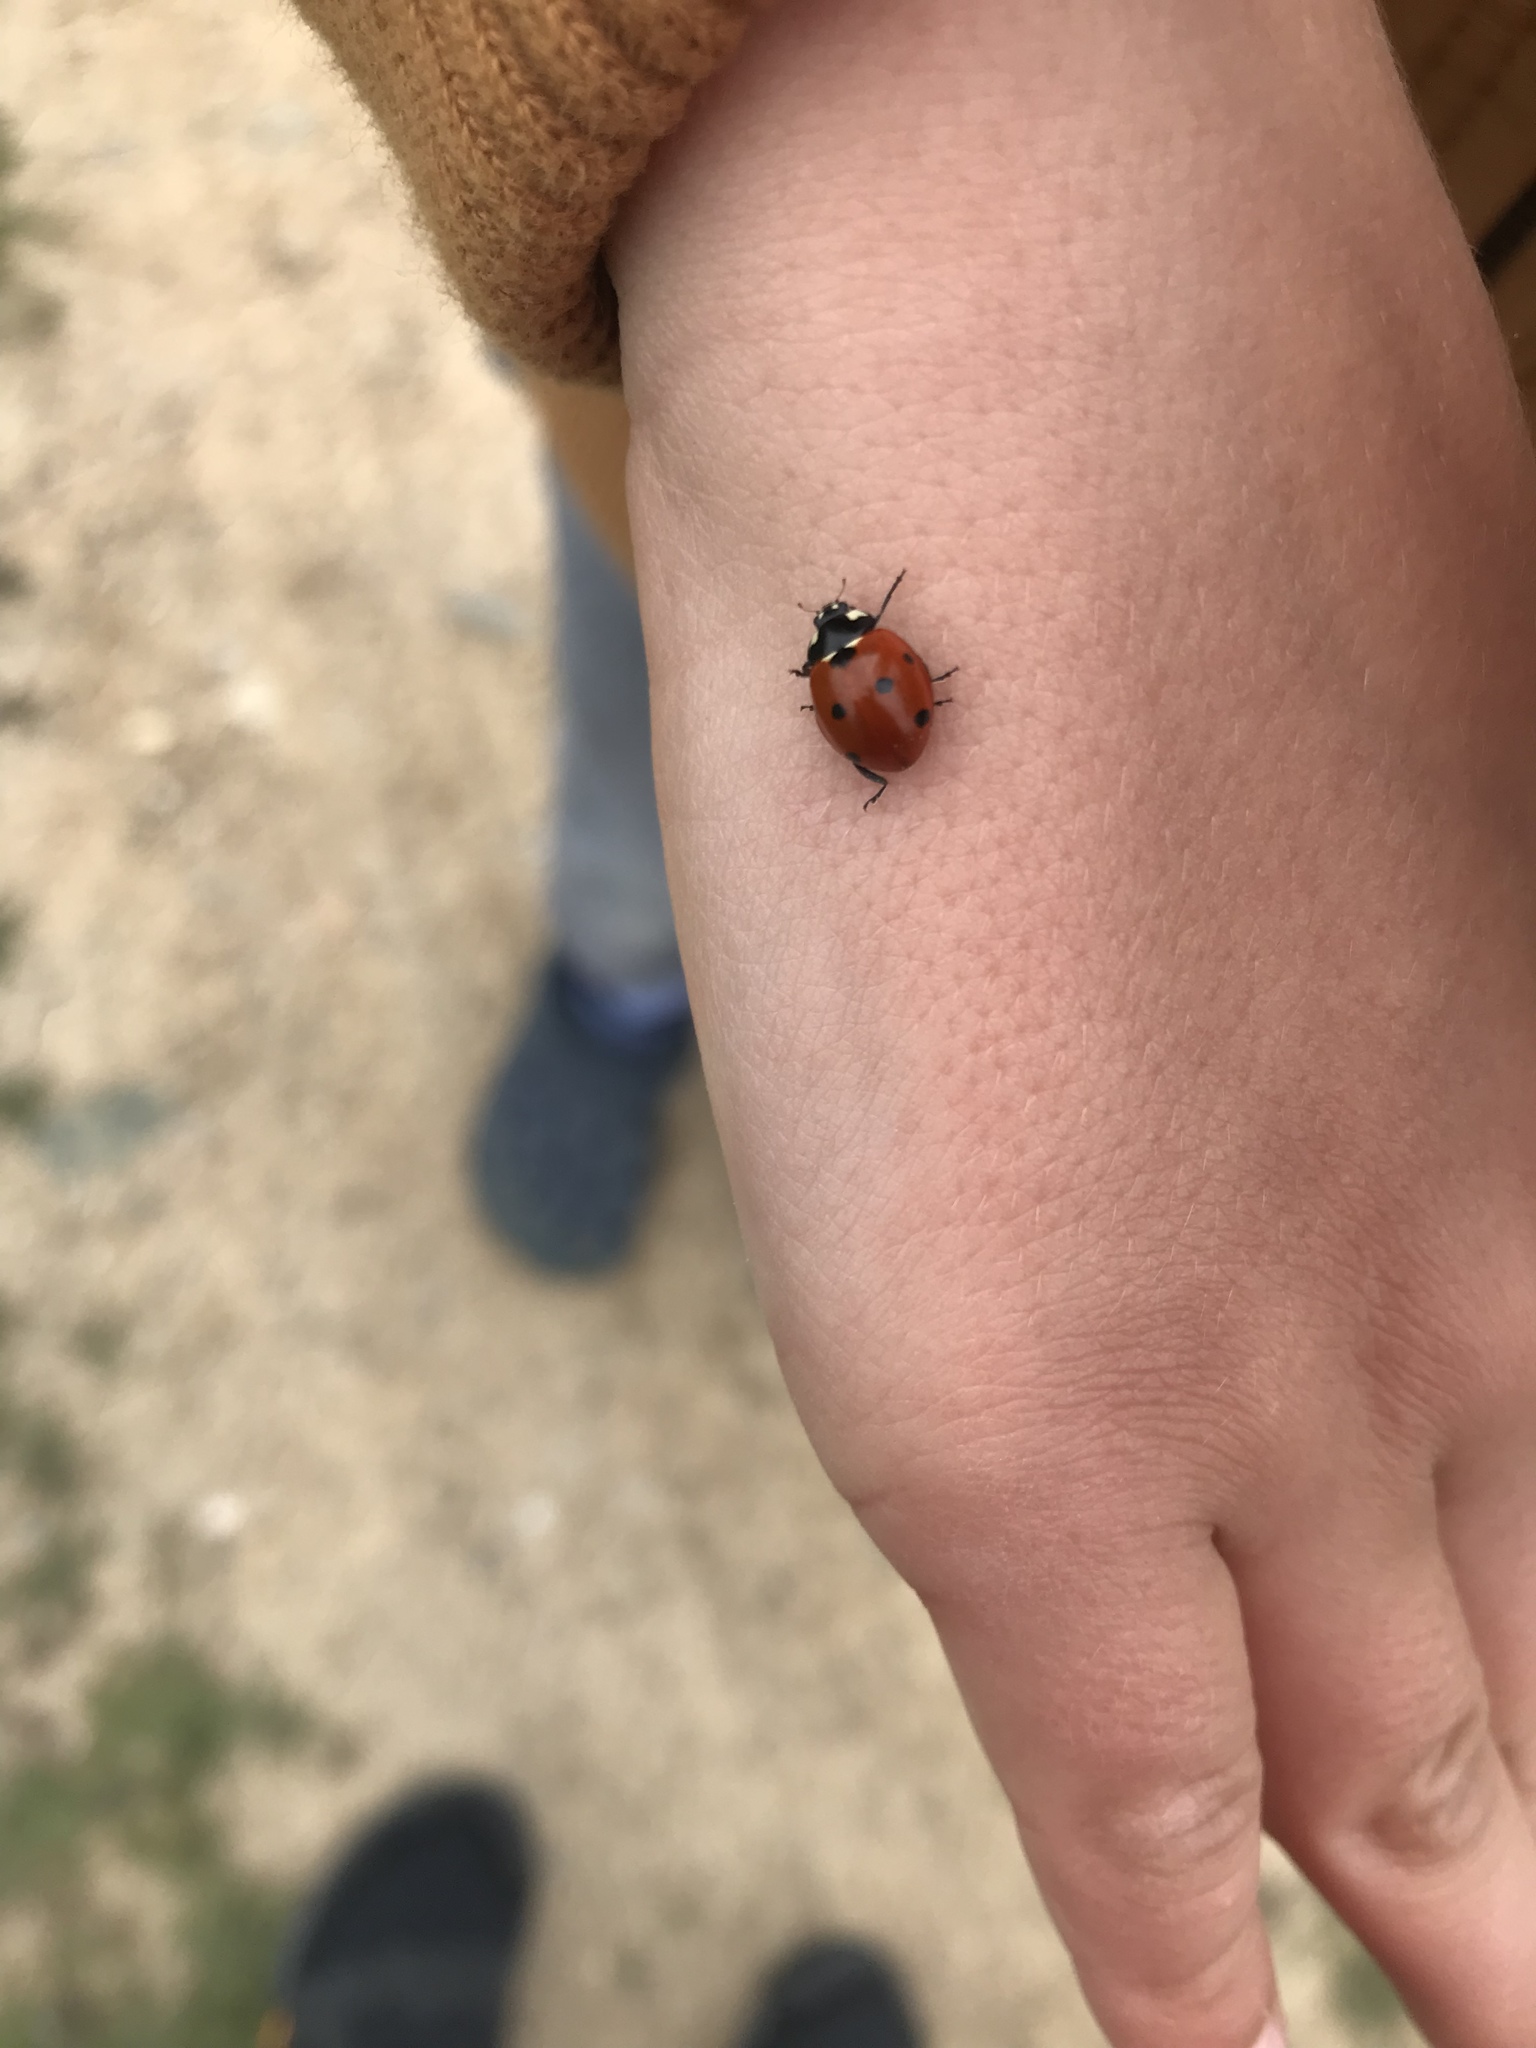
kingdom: Animalia
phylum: Arthropoda
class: Insecta
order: Coleoptera
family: Coccinellidae
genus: Coccinella
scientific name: Coccinella septempunctata
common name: Sevenspotted lady beetle
